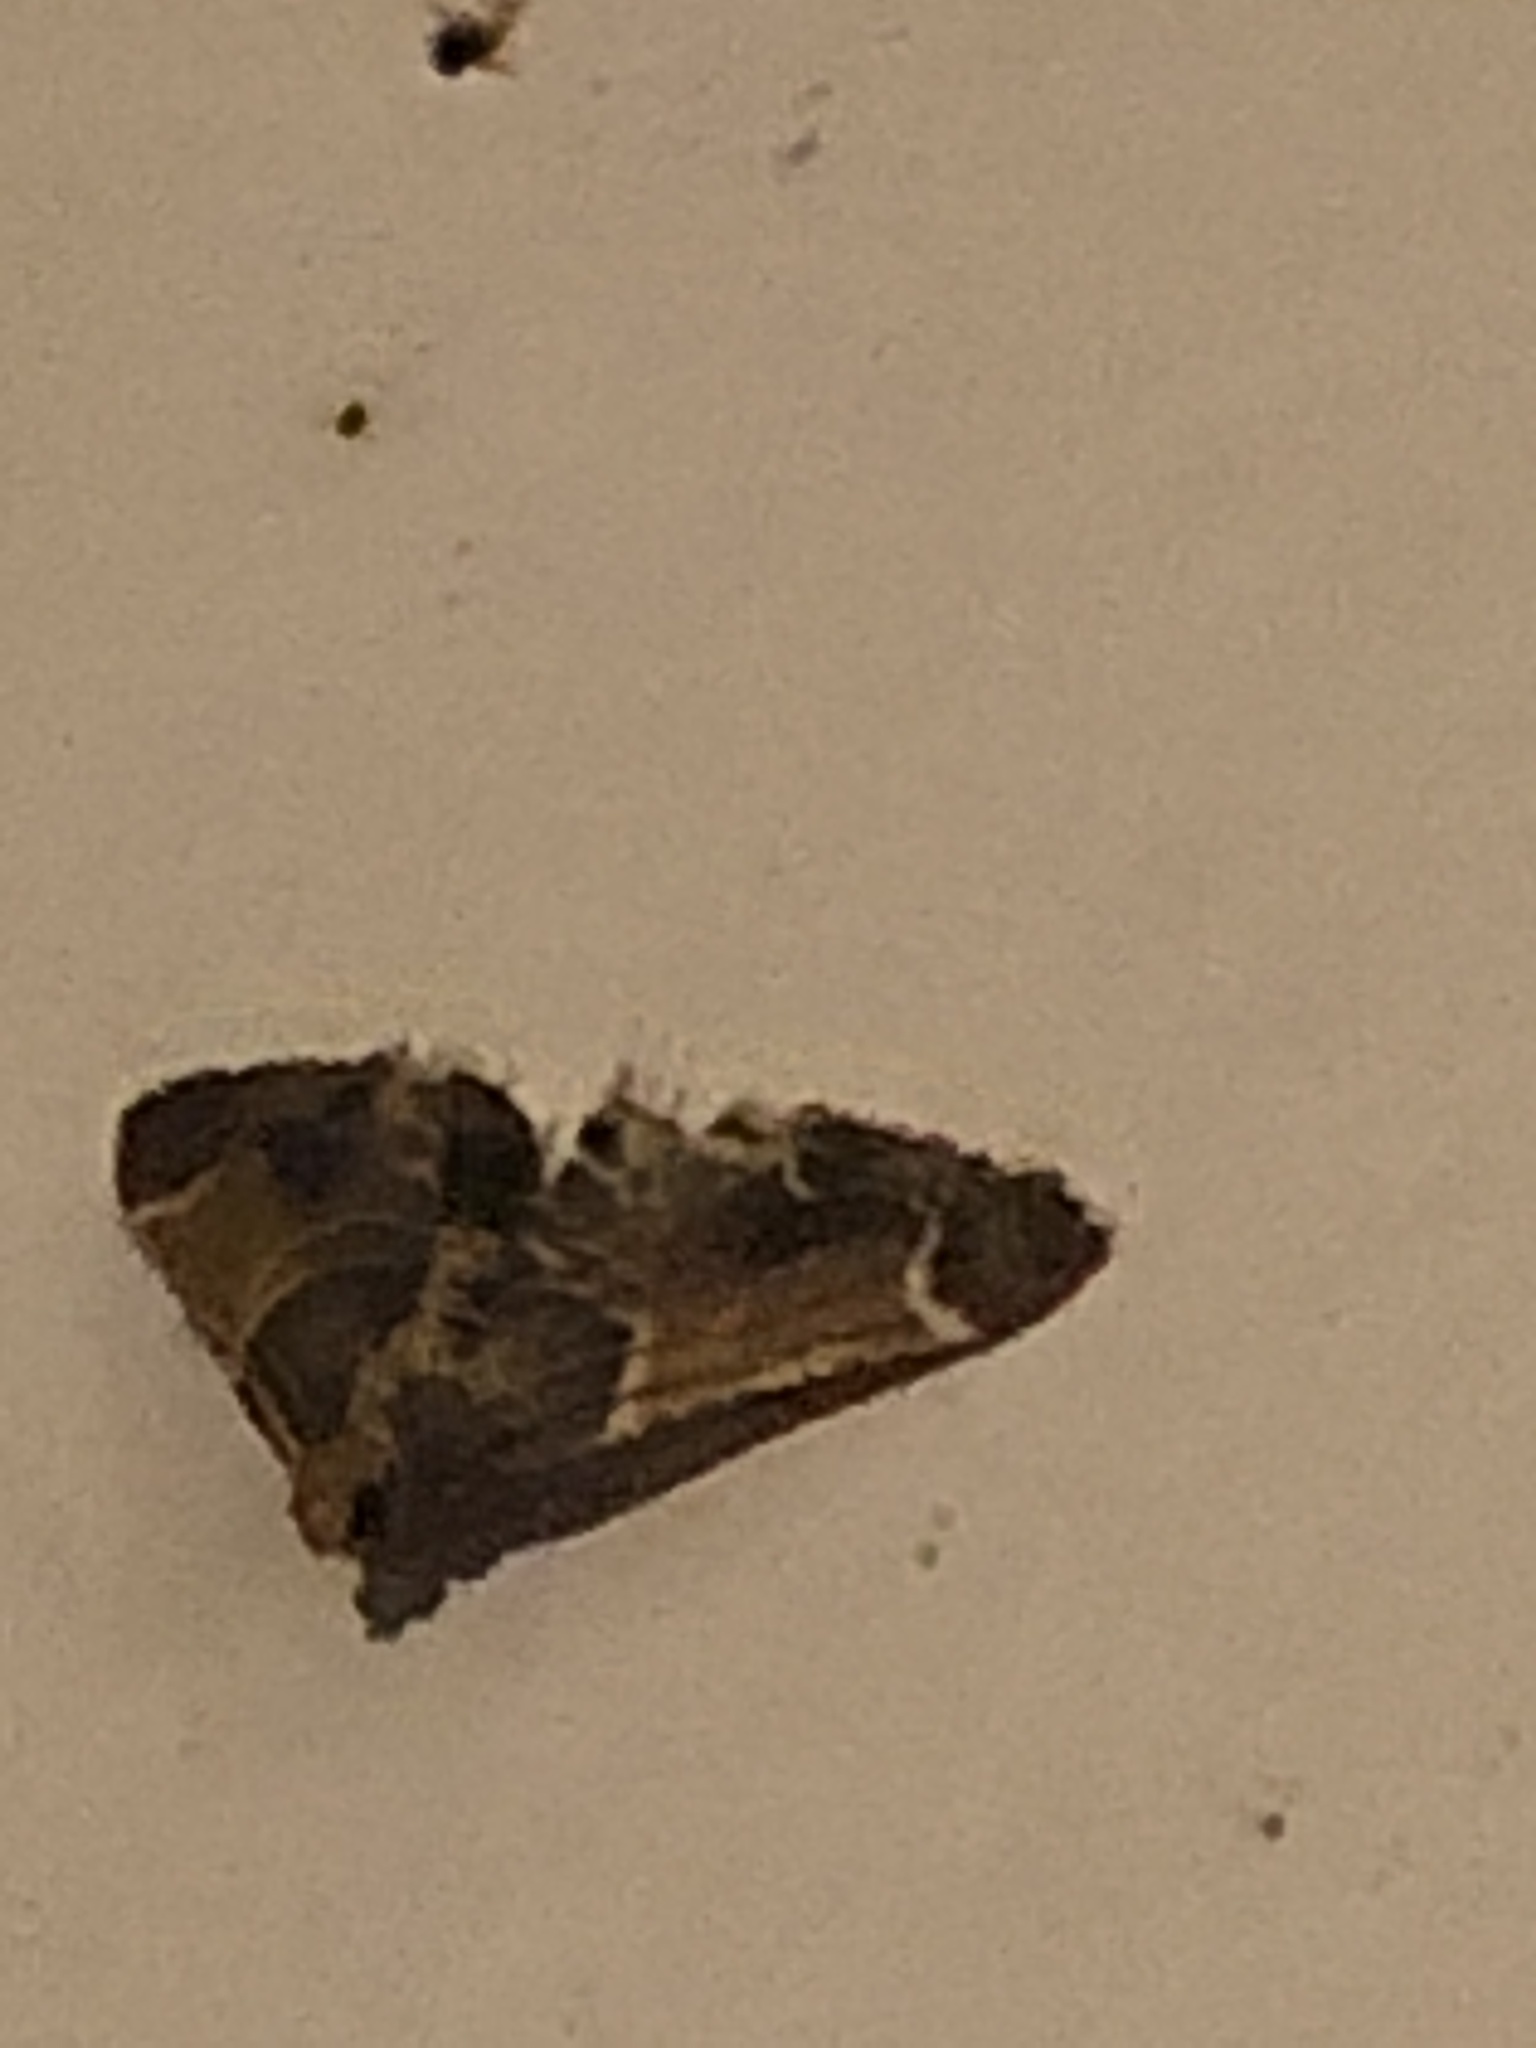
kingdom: Animalia
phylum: Arthropoda
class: Insecta
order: Lepidoptera
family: Pyralidae
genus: Pyralis
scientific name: Pyralis farinalis
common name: Meal moth
